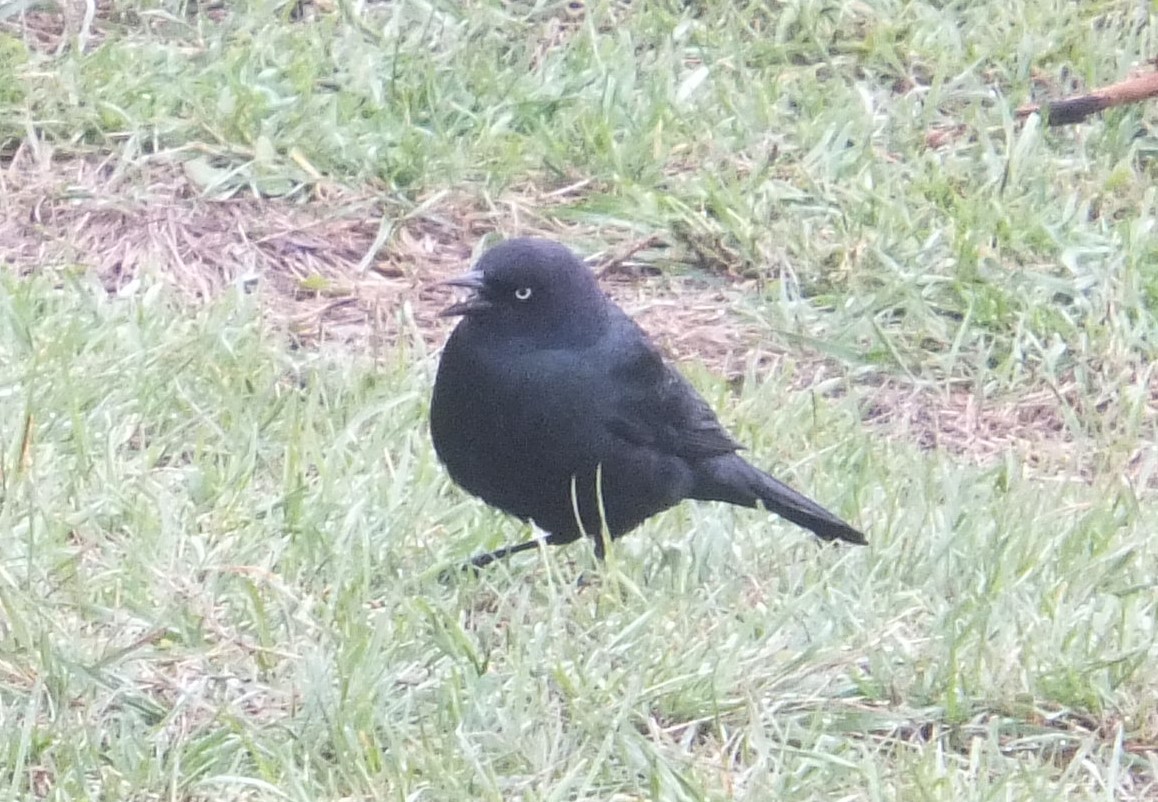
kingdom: Animalia
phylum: Chordata
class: Aves
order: Passeriformes
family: Icteridae
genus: Euphagus
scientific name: Euphagus cyanocephalus
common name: Brewer's blackbird
